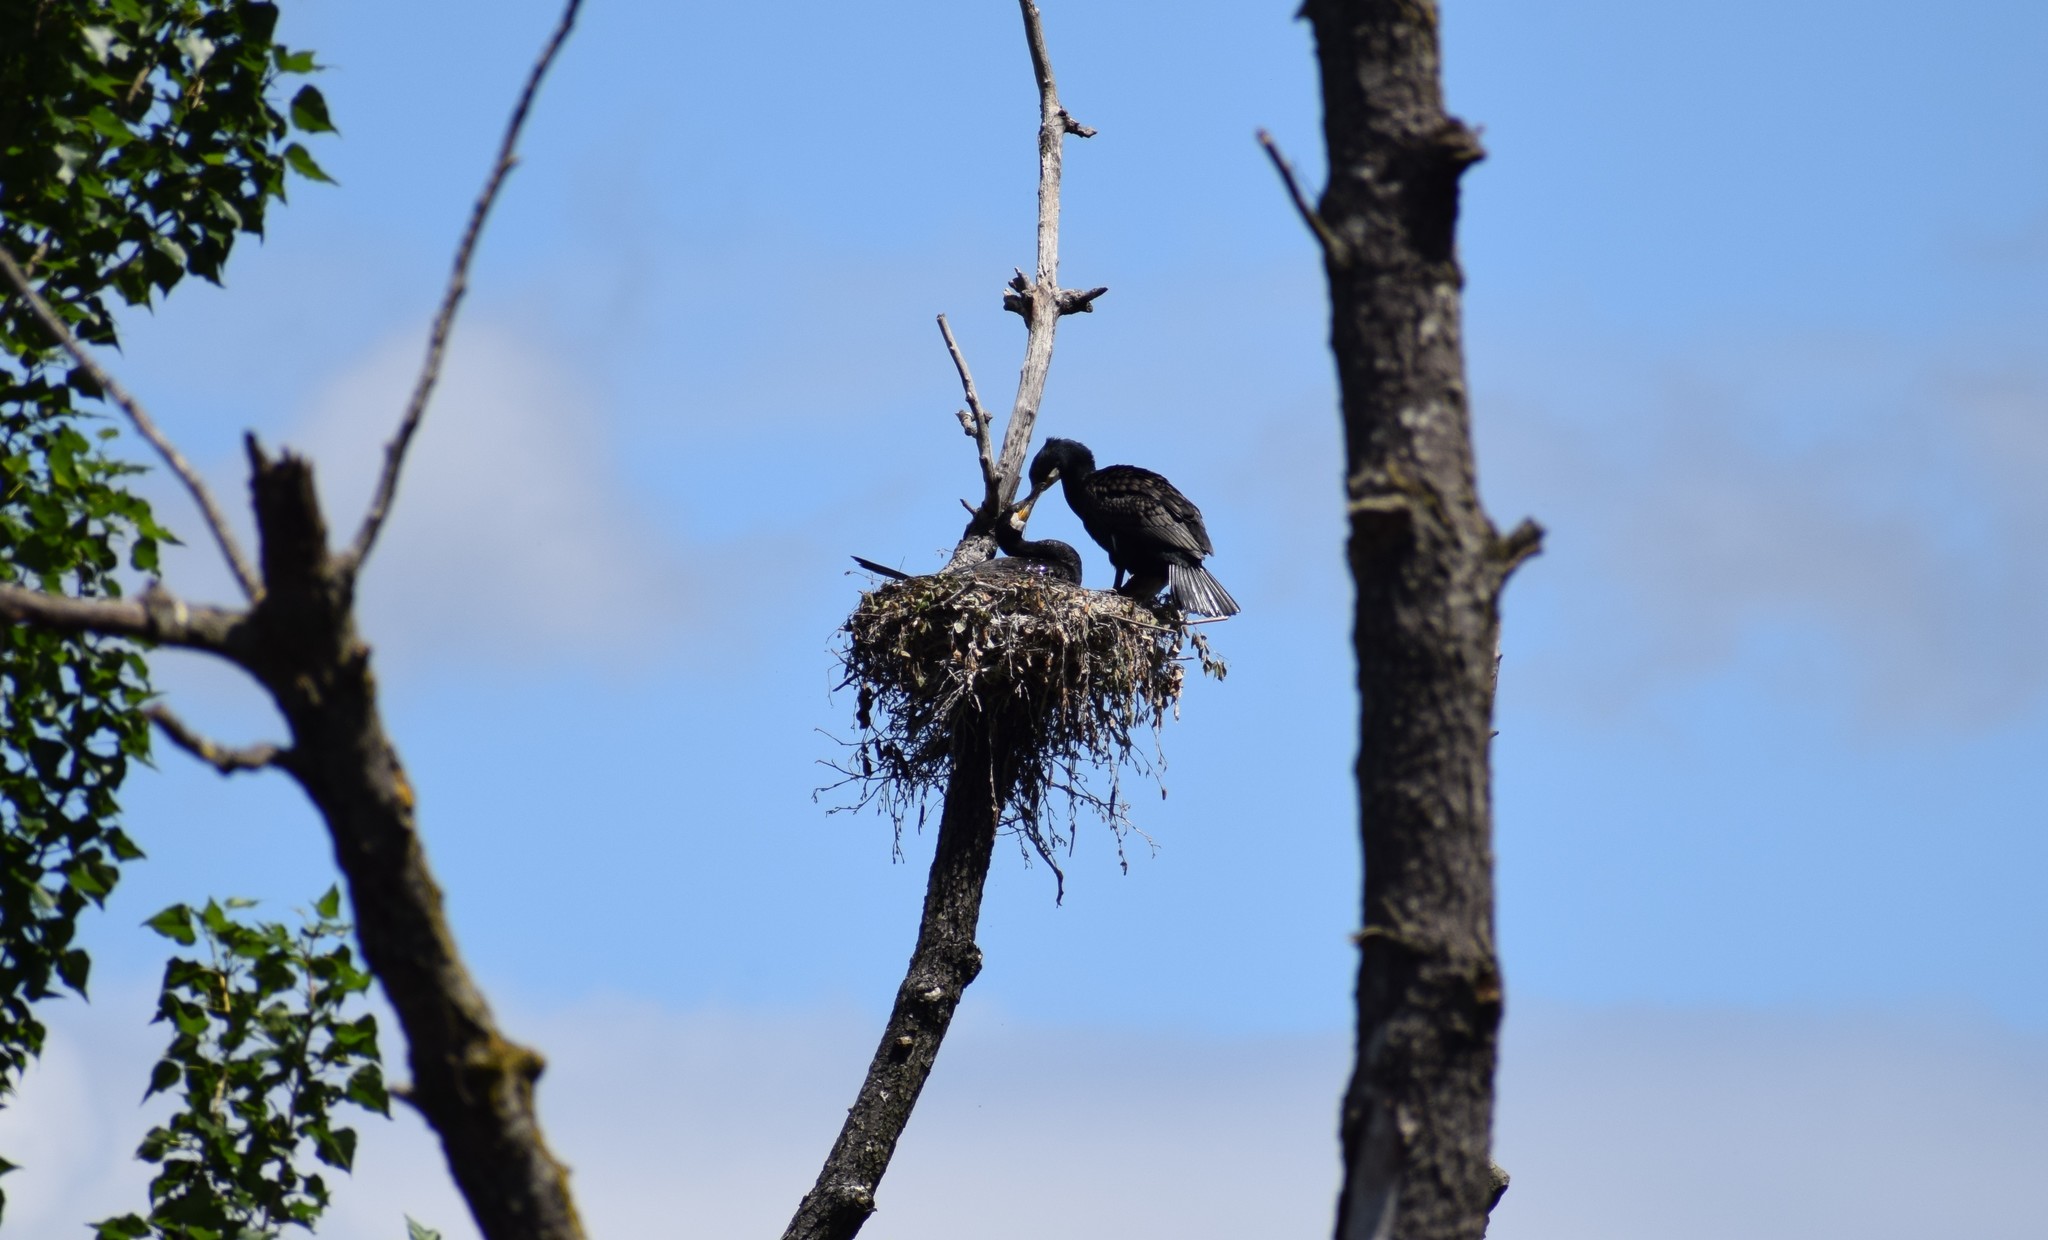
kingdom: Animalia
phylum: Chordata
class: Aves
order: Suliformes
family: Phalacrocoracidae
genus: Phalacrocorax
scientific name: Phalacrocorax carbo
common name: Great cormorant
